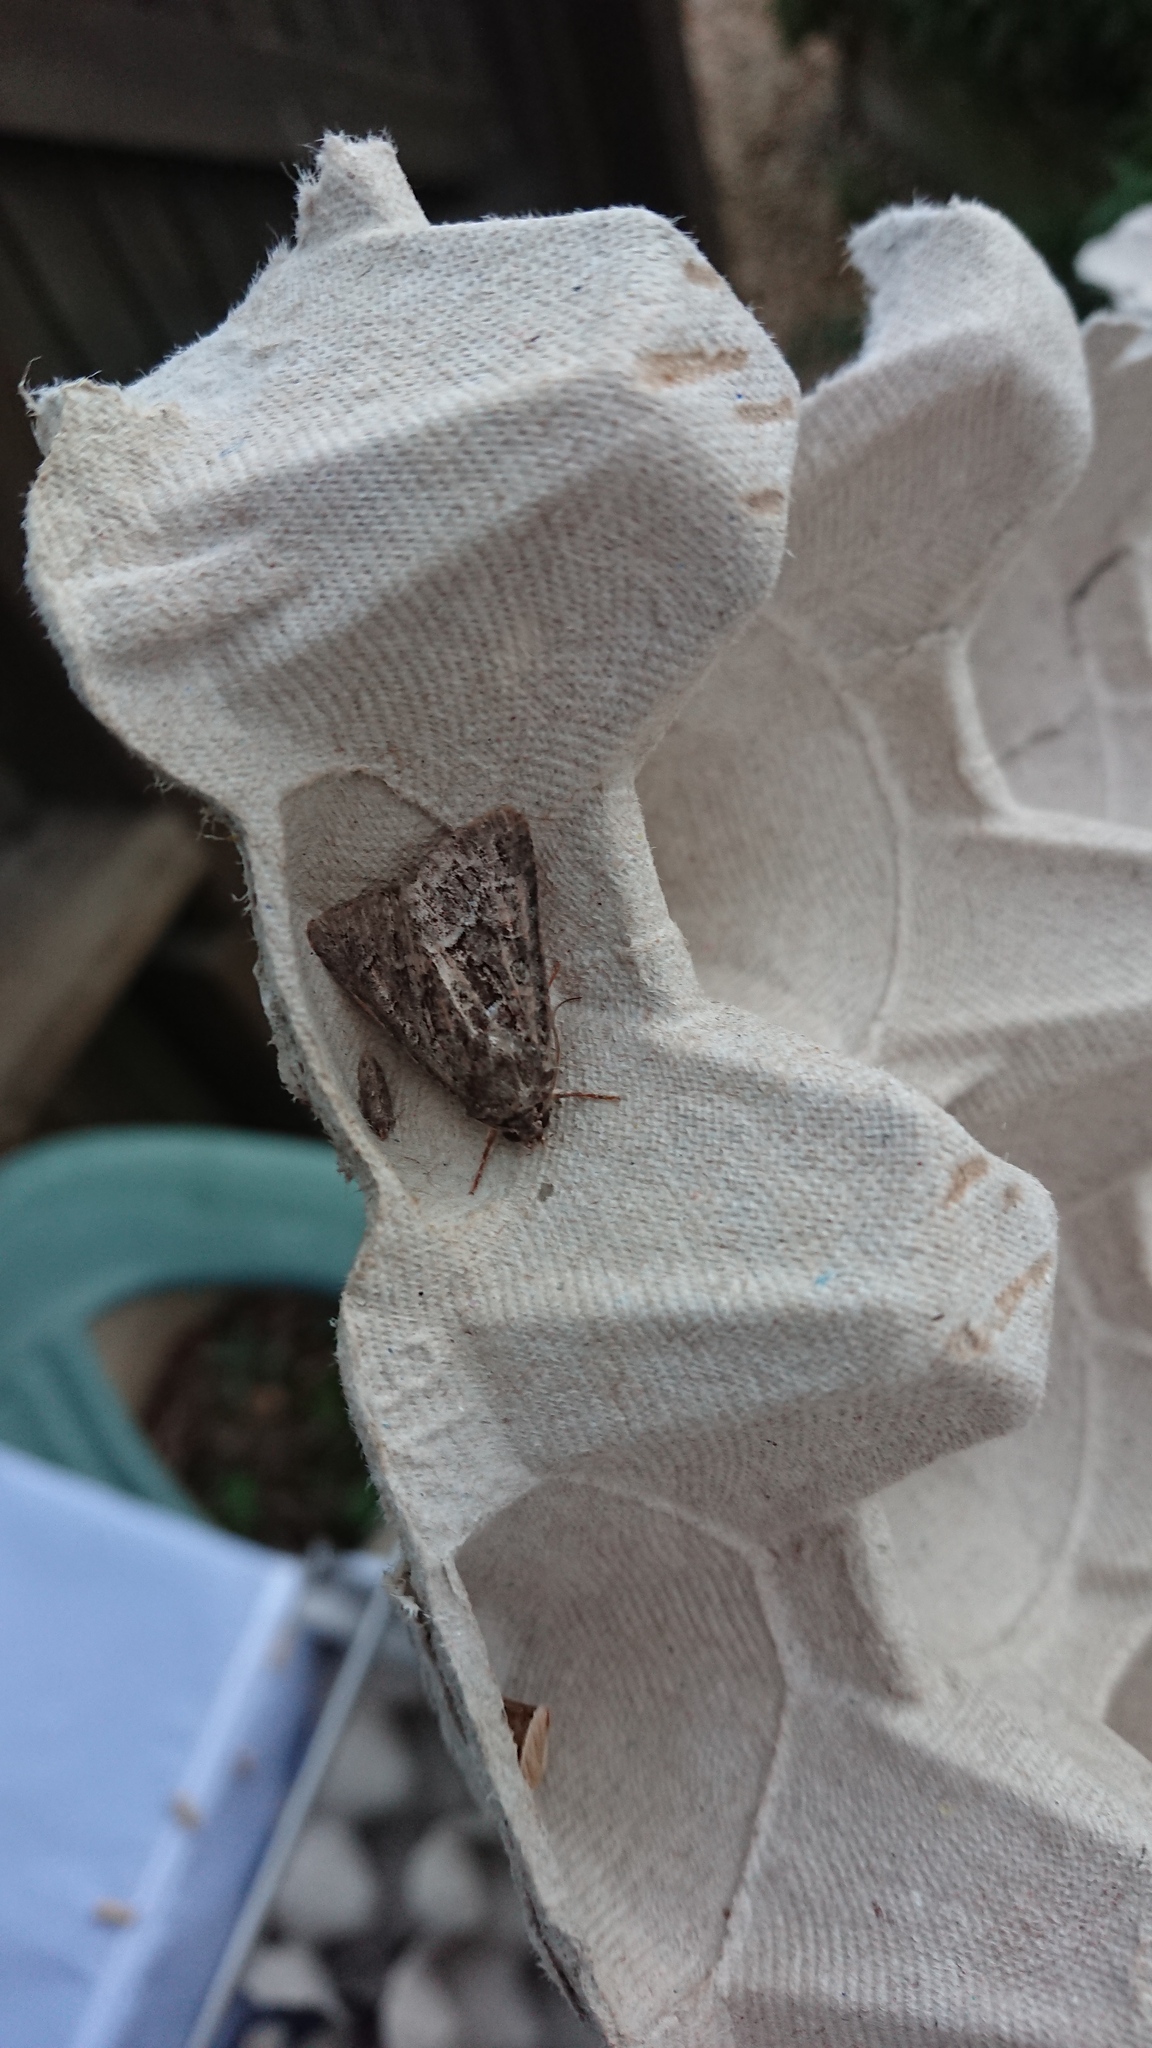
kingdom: Animalia
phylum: Arthropoda
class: Insecta
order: Lepidoptera
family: Noctuidae
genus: Thalpophila
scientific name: Thalpophila matura
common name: Straw underwing
